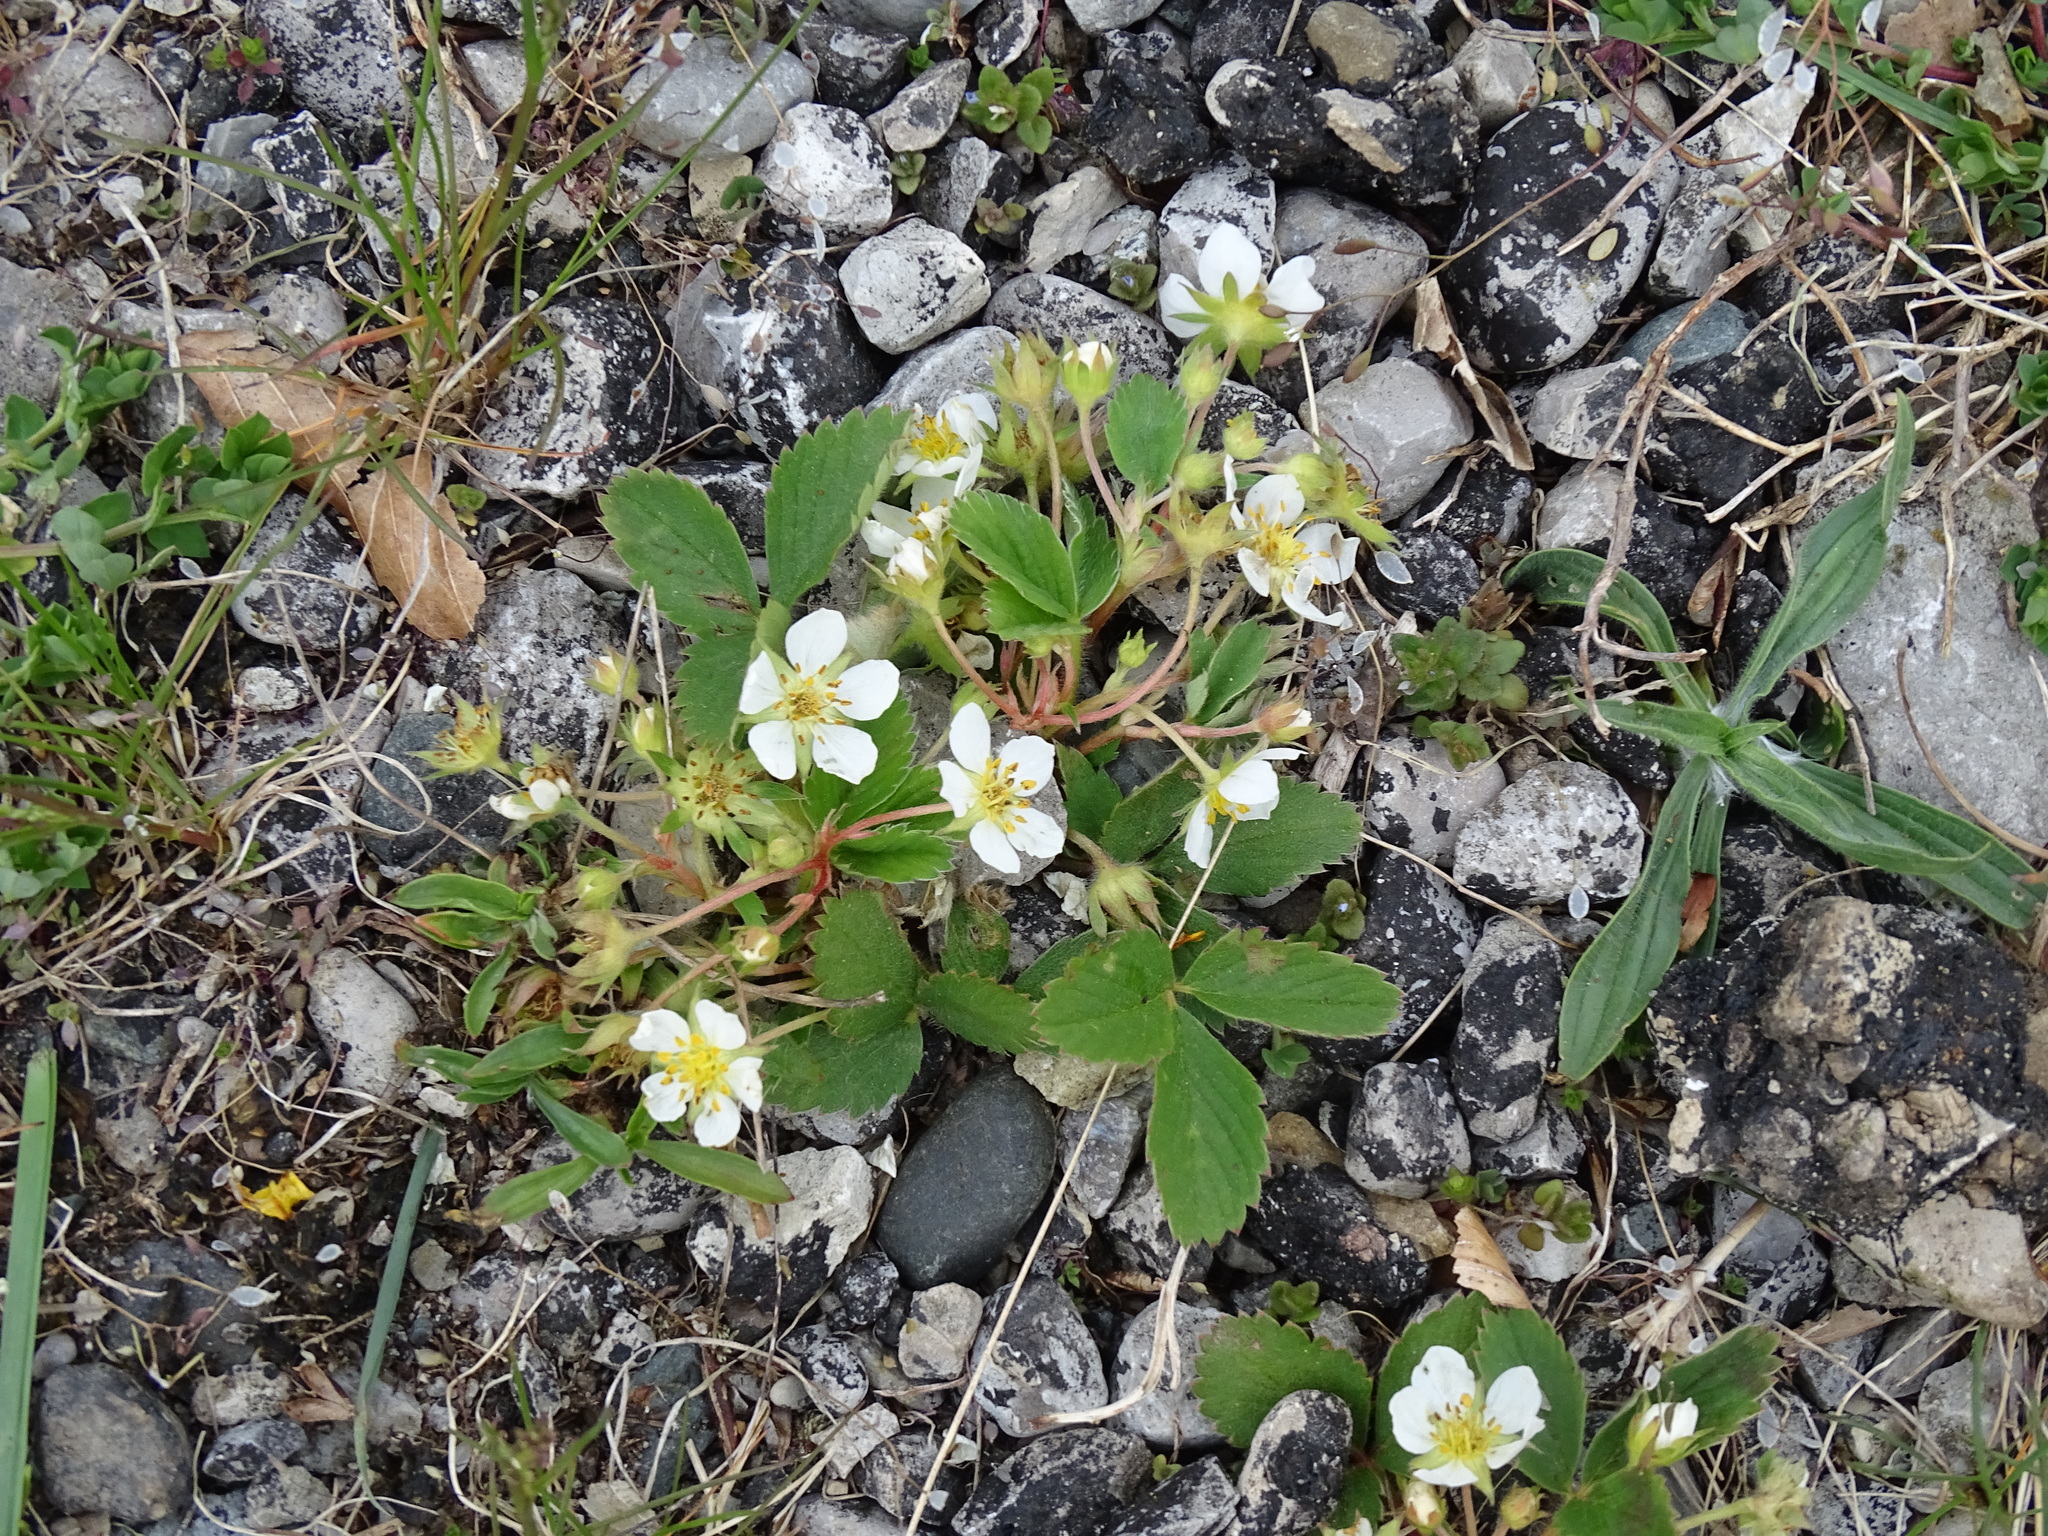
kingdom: Plantae
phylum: Tracheophyta
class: Magnoliopsida
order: Rosales
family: Rosaceae
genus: Fragaria
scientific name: Fragaria virginiana
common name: Thickleaved wild strawberry
